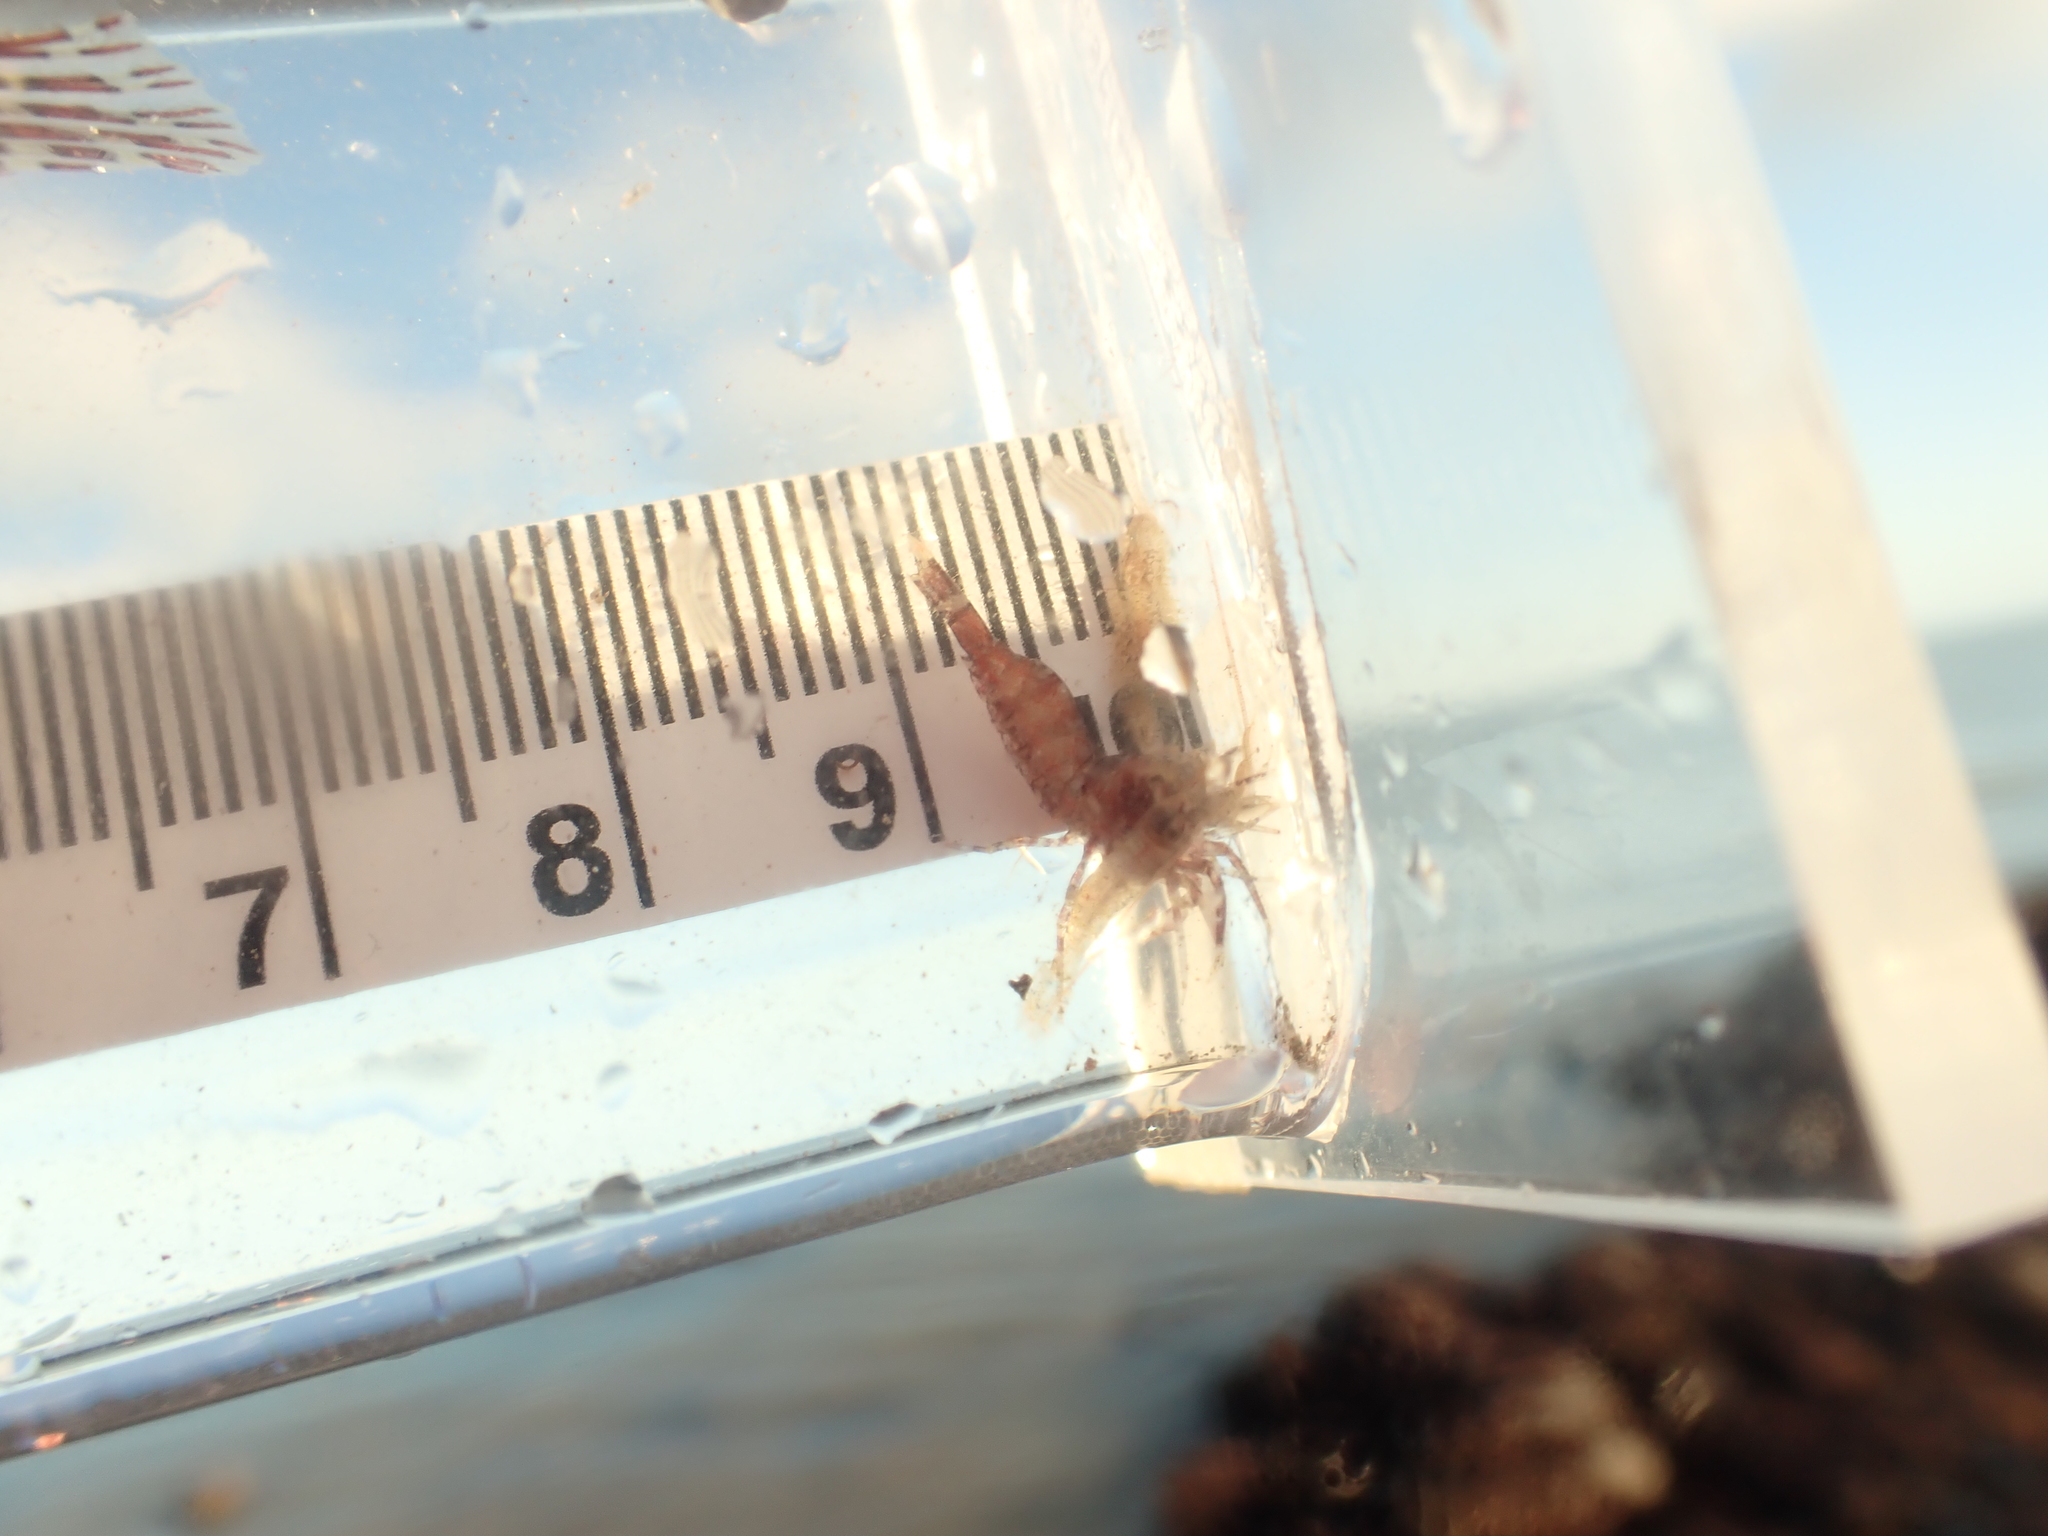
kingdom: Animalia
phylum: Arthropoda
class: Malacostraca
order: Decapoda
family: Thoridae
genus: Eualus
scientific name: Eualus pusiolus
